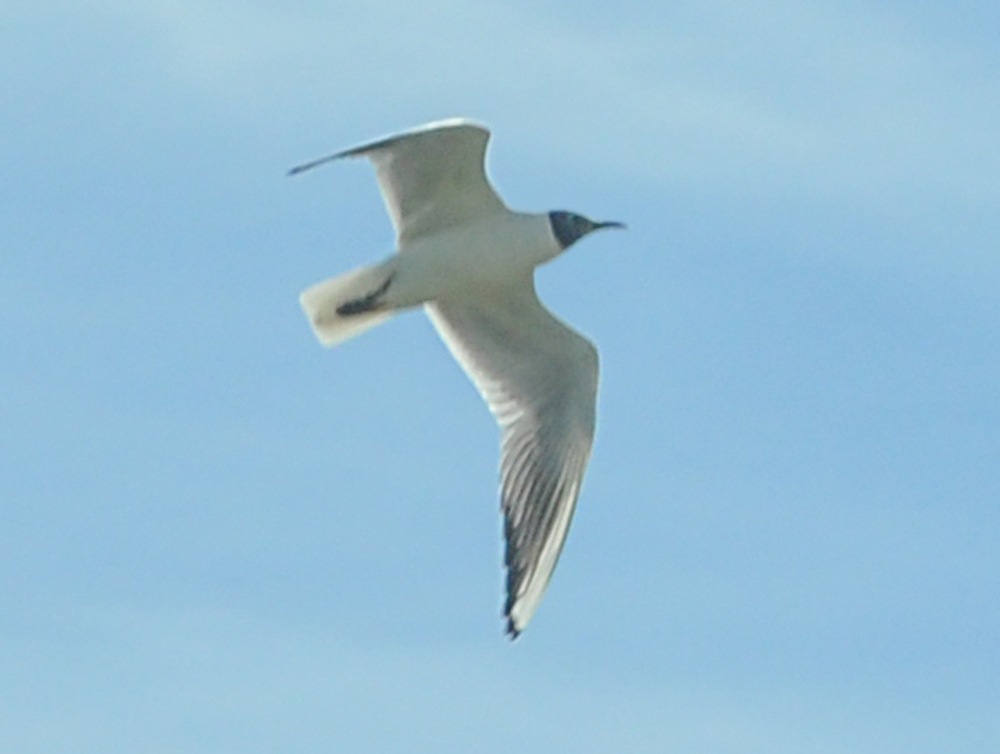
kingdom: Animalia
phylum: Chordata
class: Aves
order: Charadriiformes
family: Laridae
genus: Chroicocephalus
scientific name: Chroicocephalus ridibundus
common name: Black-headed gull
